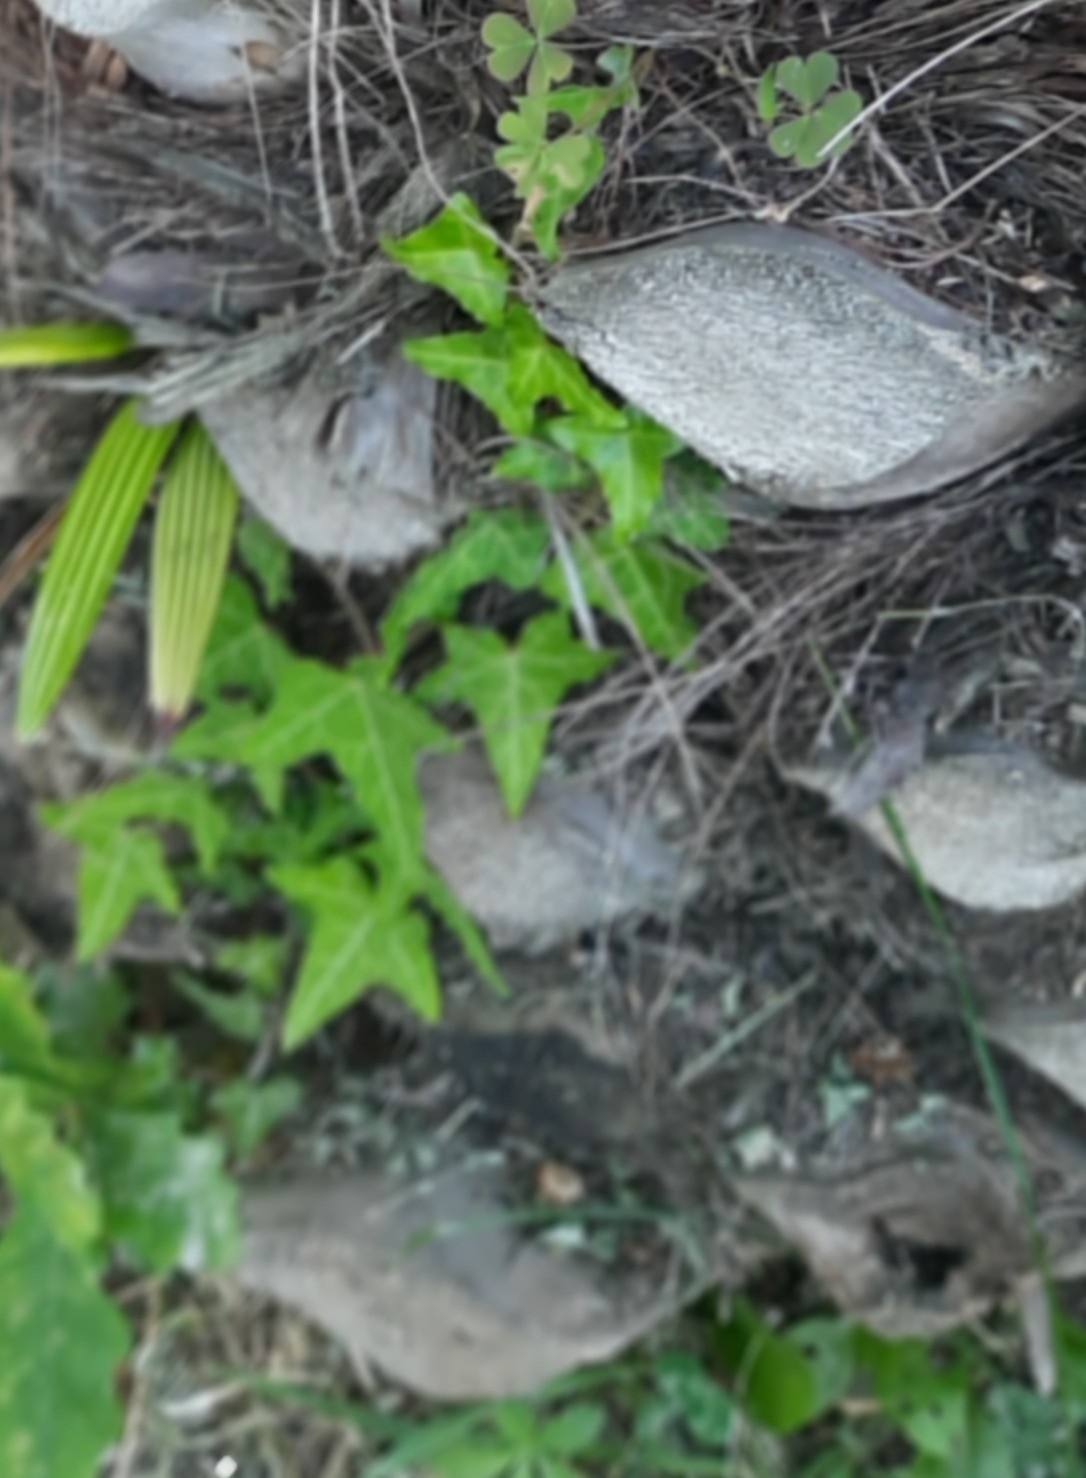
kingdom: Plantae
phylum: Tracheophyta
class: Magnoliopsida
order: Apiales
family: Araliaceae
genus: Hedera
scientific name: Hedera helix
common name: Ivy
